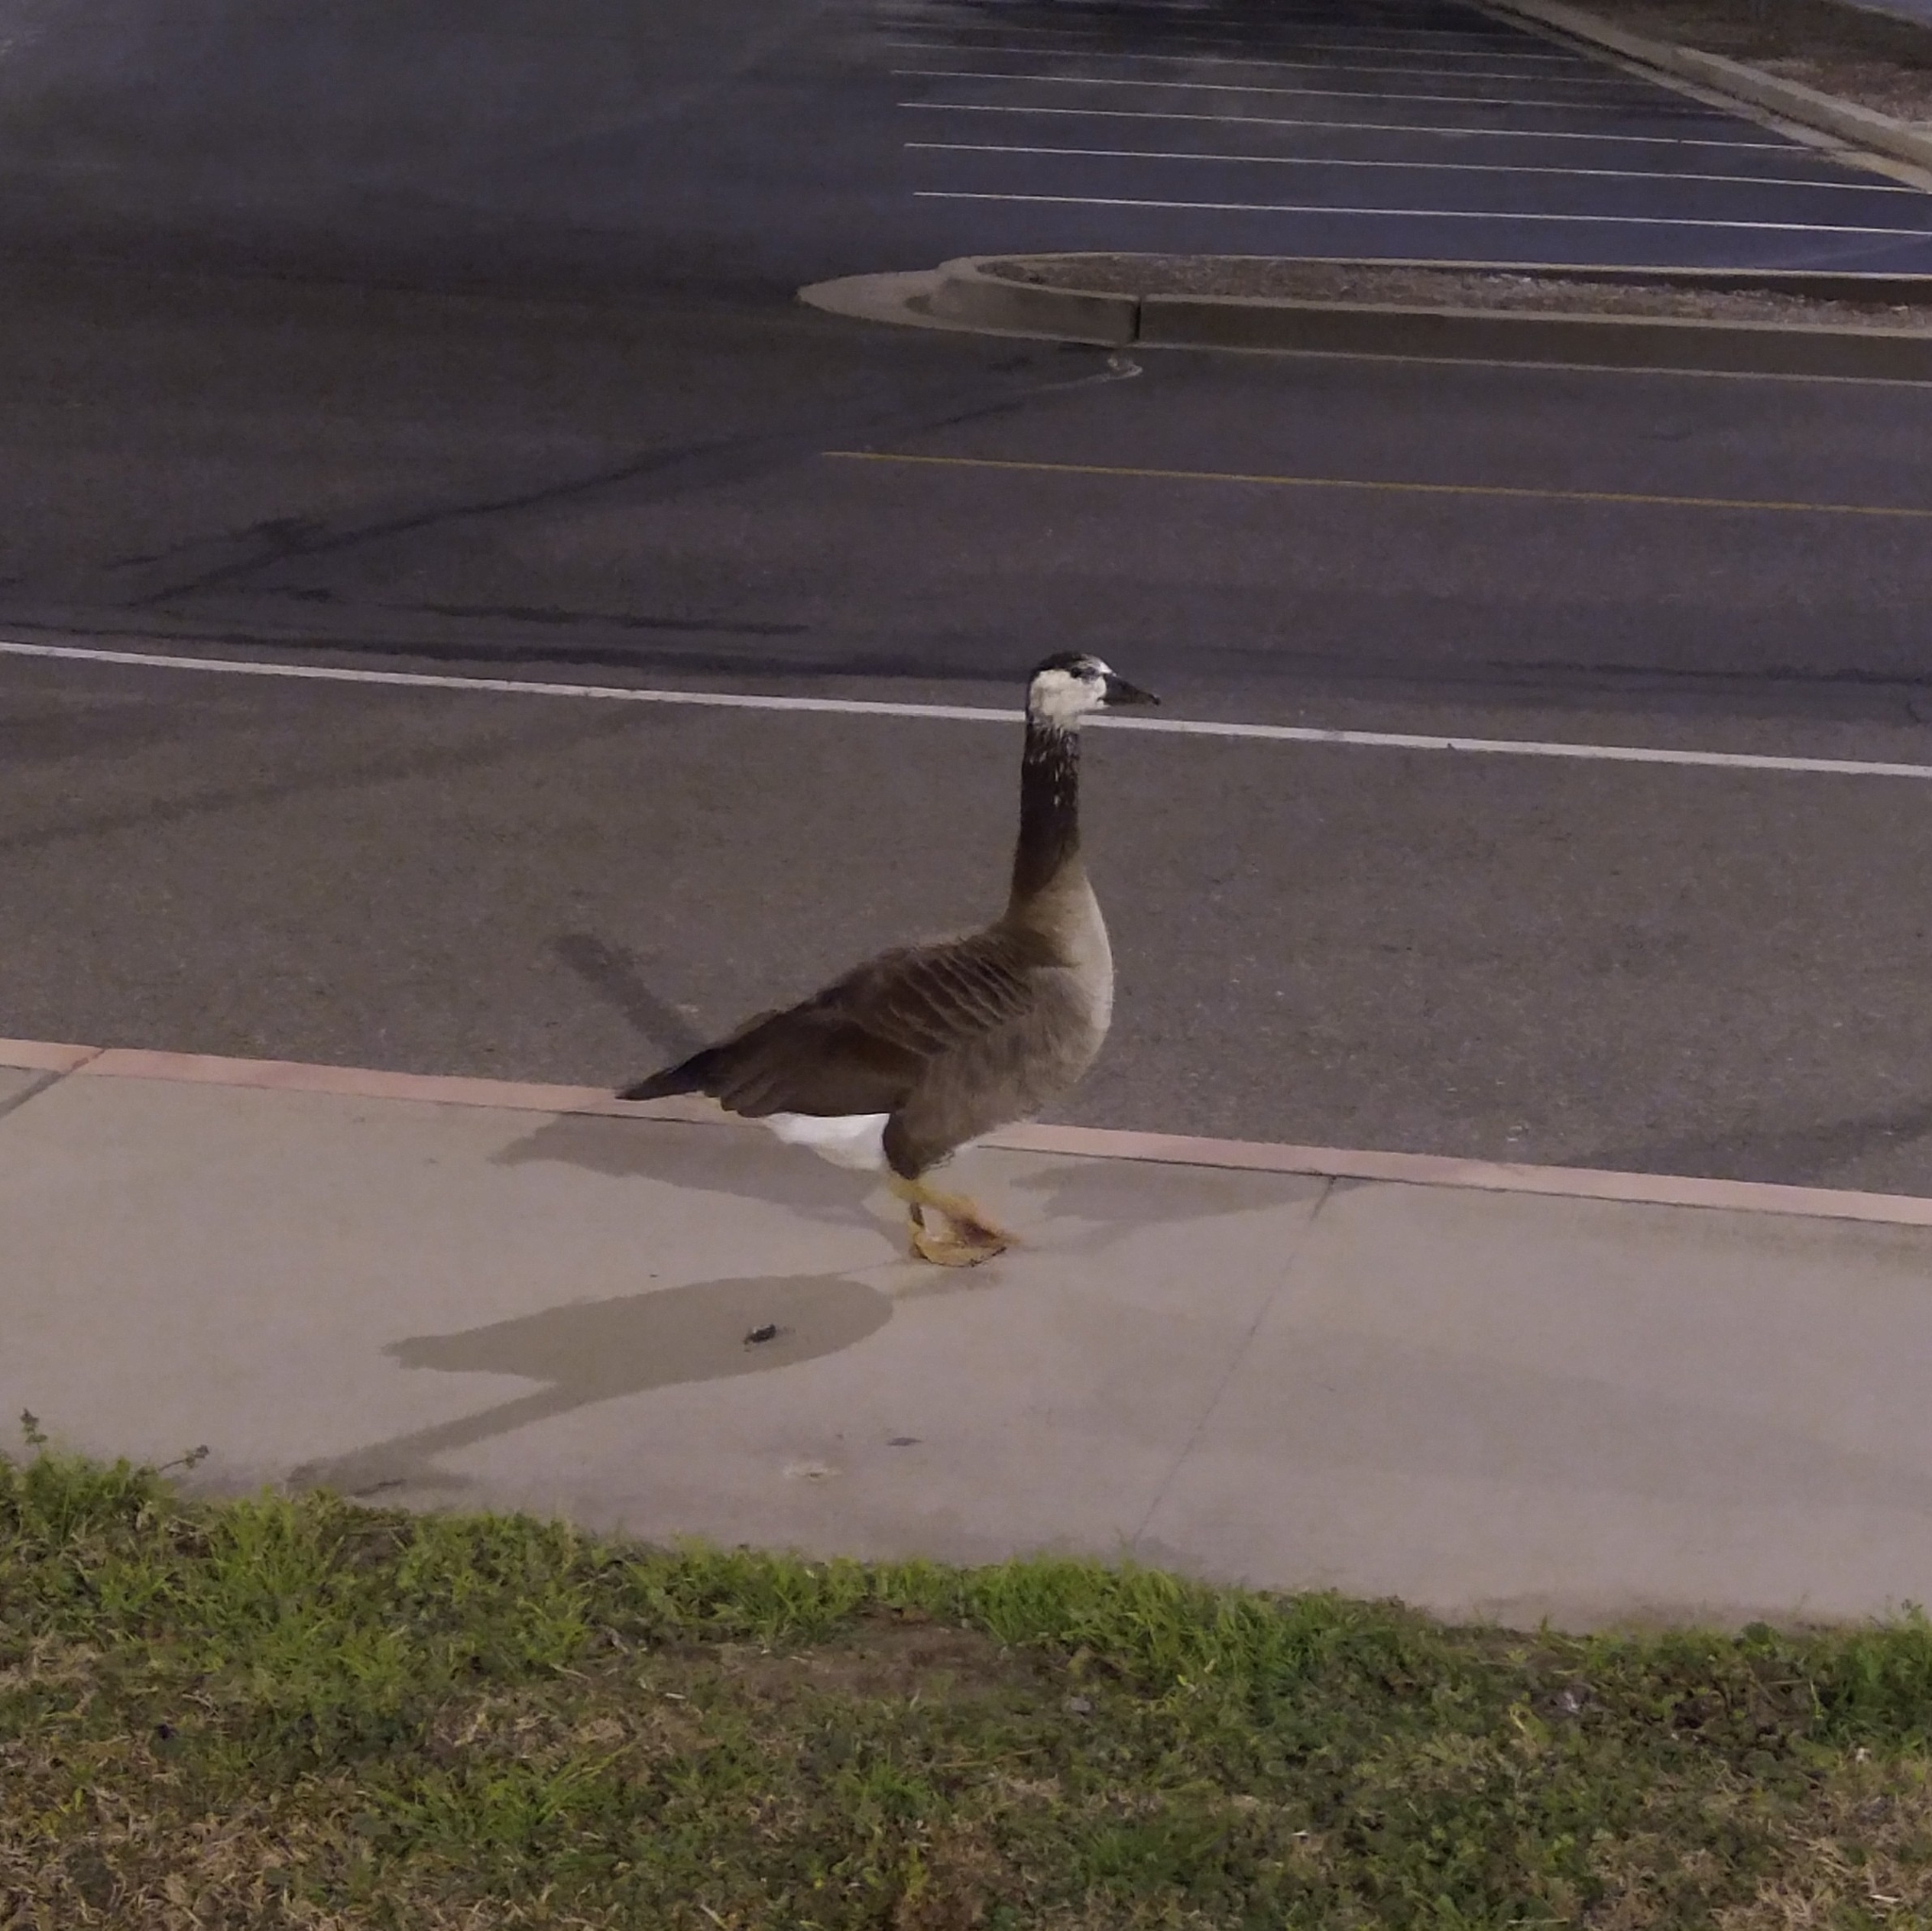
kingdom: Animalia
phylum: Chordata
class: Aves
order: Anseriformes
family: Anatidae
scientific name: Anatidae
